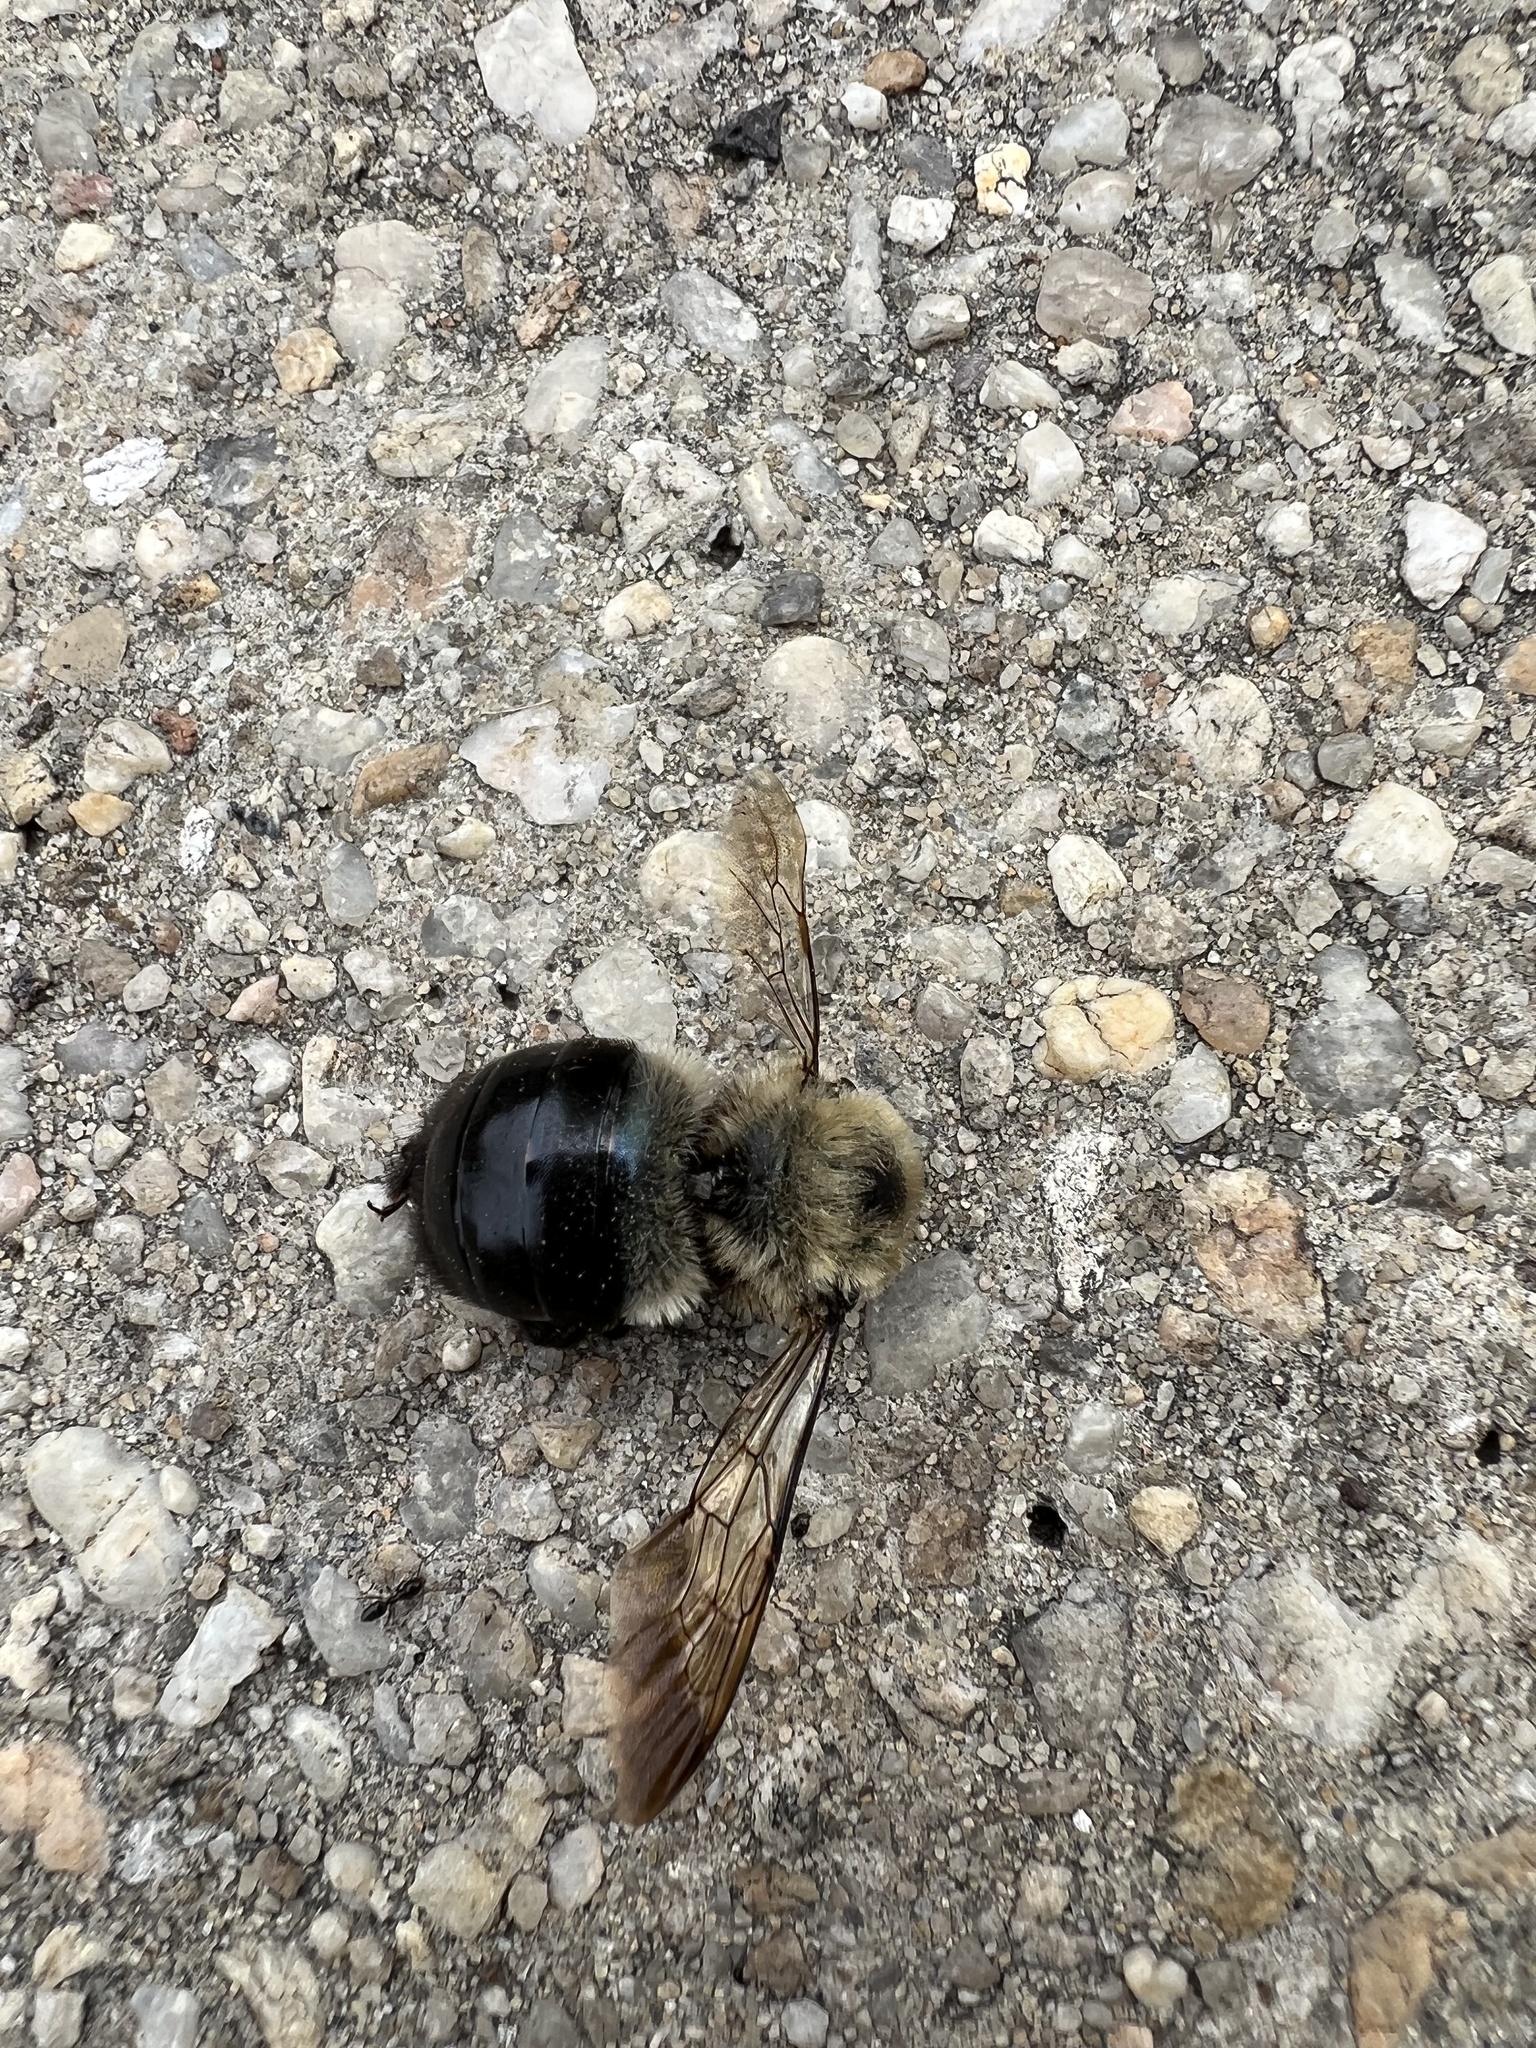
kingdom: Animalia
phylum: Arthropoda
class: Insecta
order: Hymenoptera
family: Apidae
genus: Xylocopa
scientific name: Xylocopa virginica
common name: Carpenter bee
